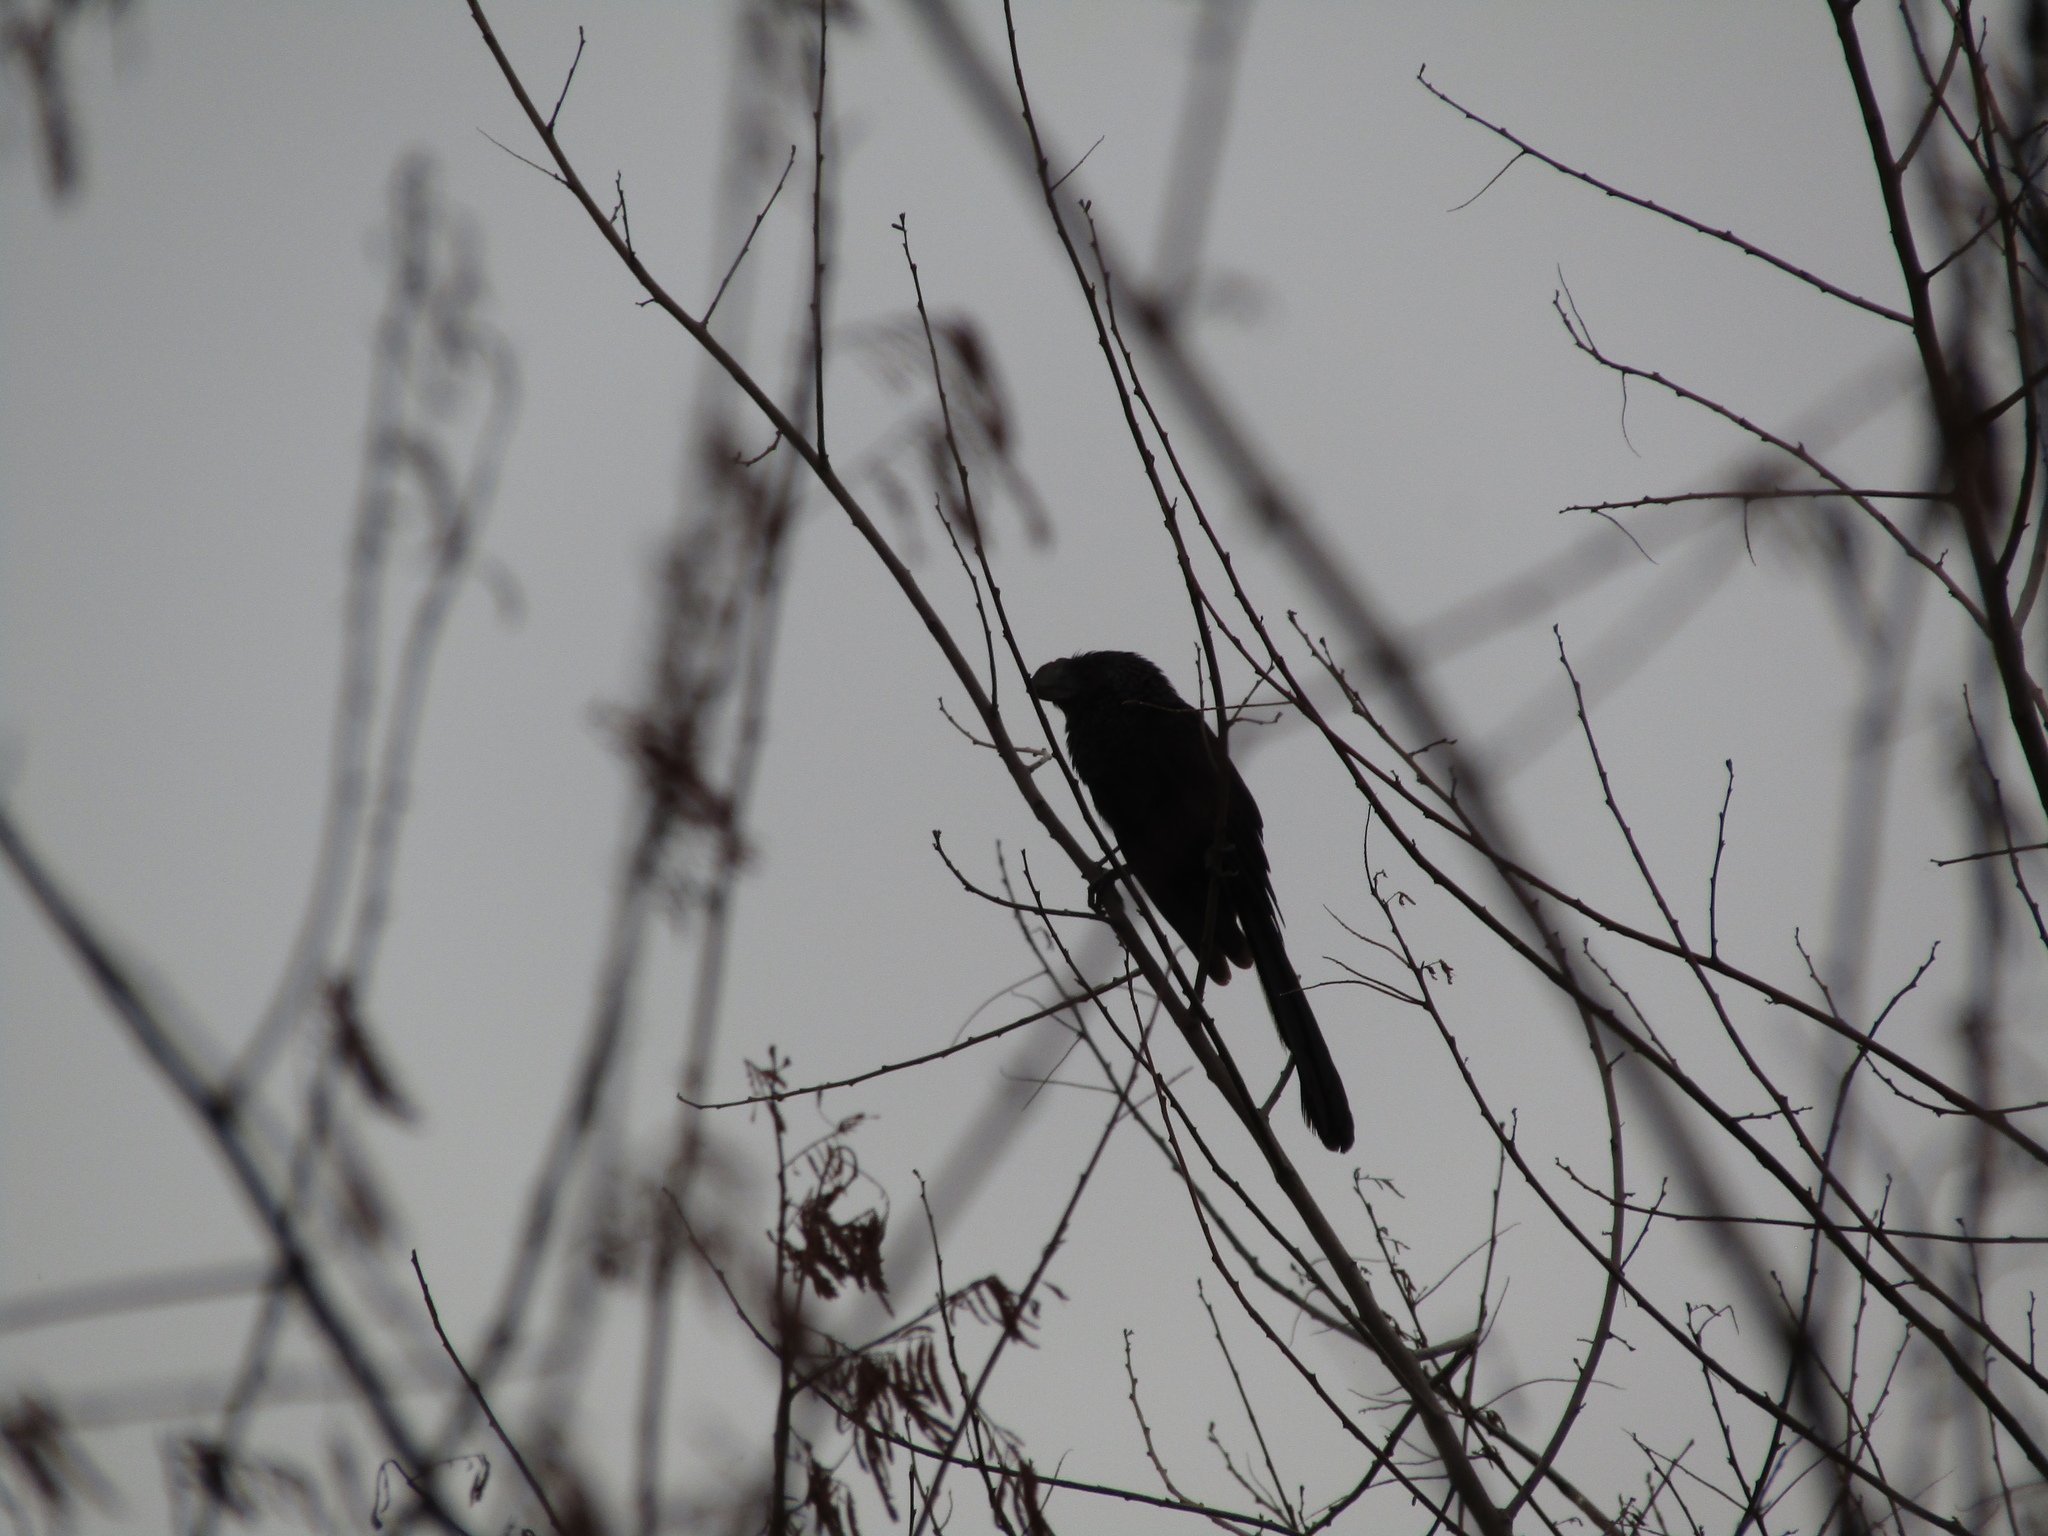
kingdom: Animalia
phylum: Chordata
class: Aves
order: Cuculiformes
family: Cuculidae
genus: Crotophaga
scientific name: Crotophaga ani
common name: Smooth-billed ani
